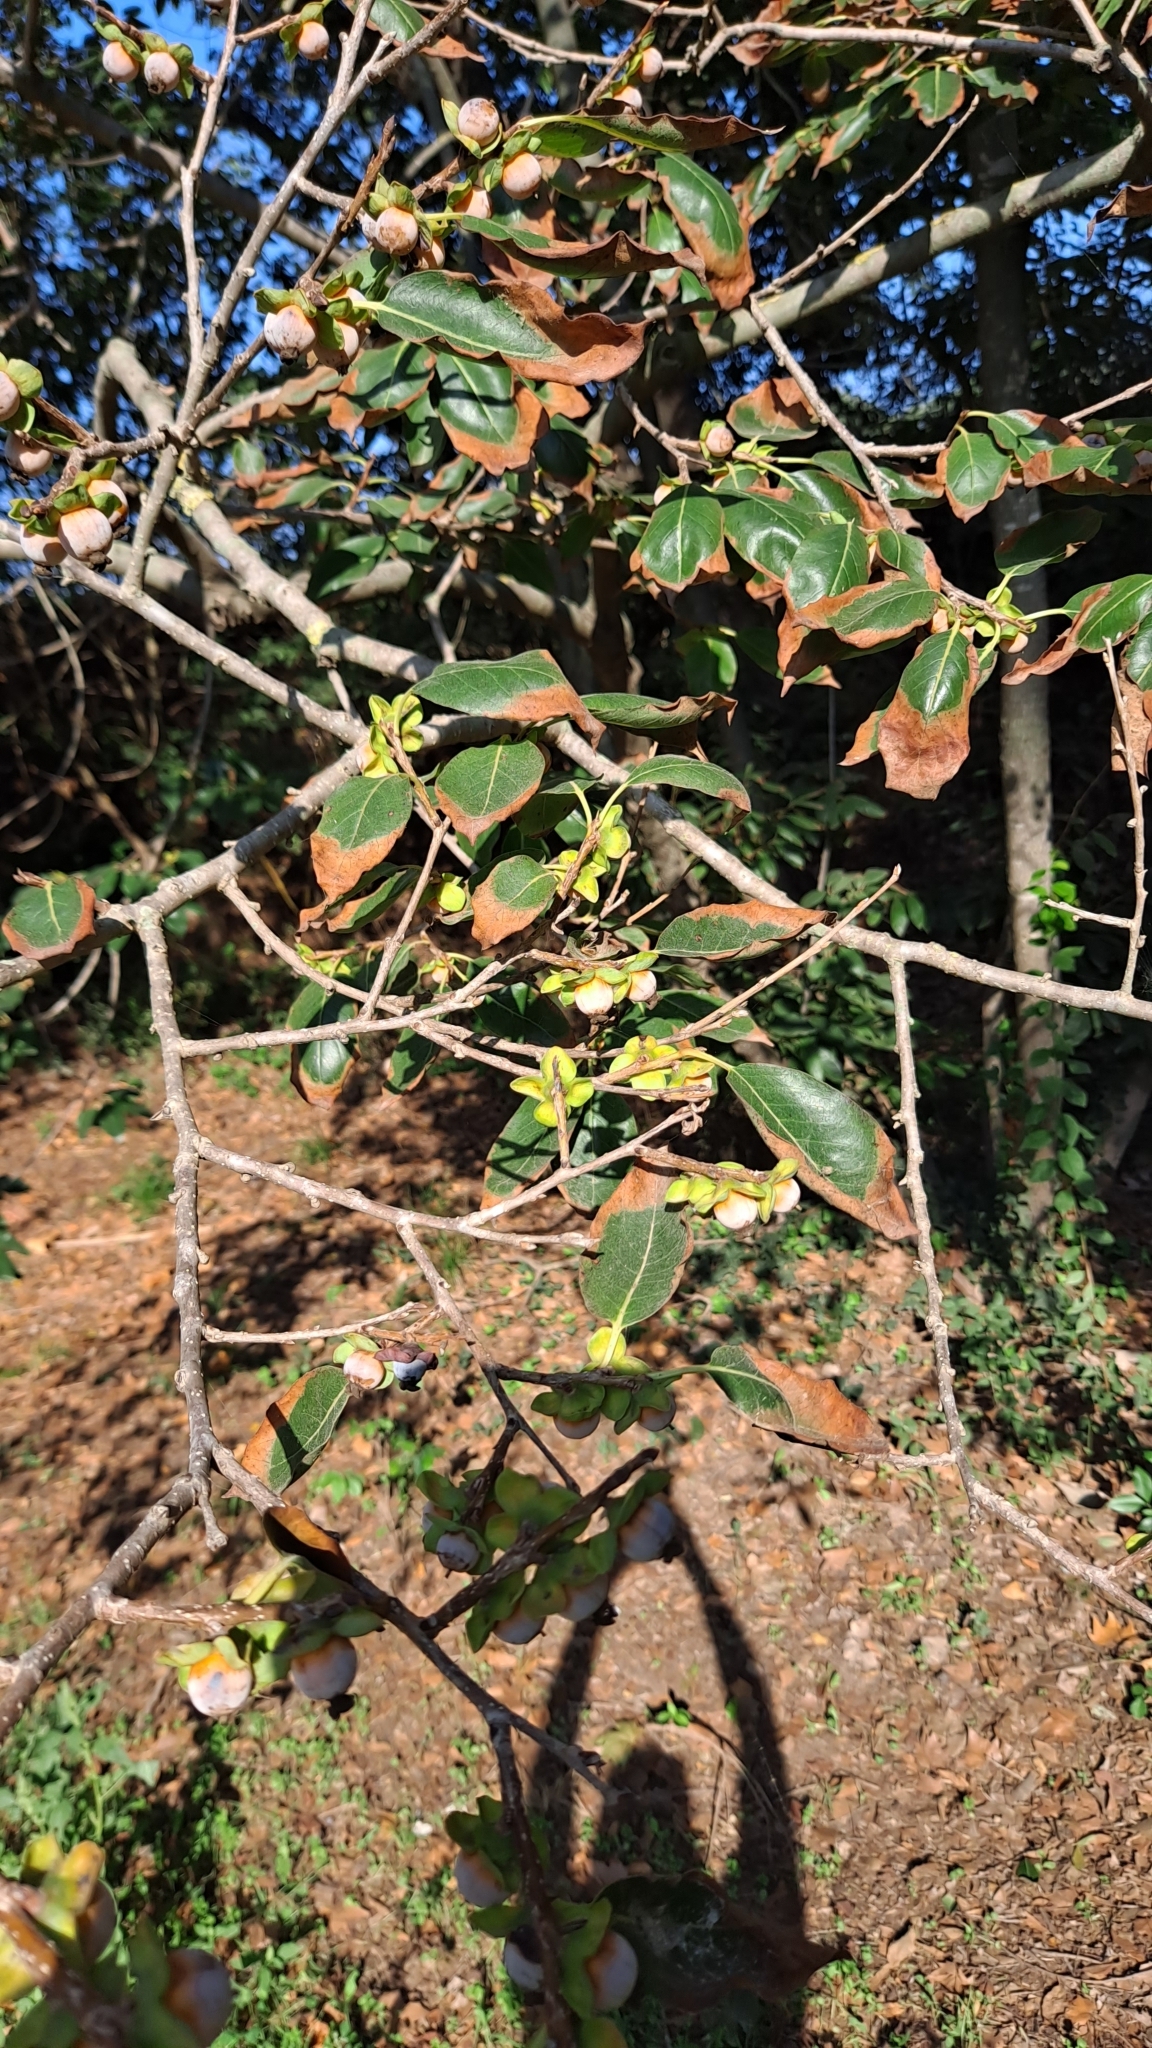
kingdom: Plantae
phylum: Tracheophyta
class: Magnoliopsida
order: Ericales
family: Ebenaceae
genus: Diospyros
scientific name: Diospyros lotus
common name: Date-plum
